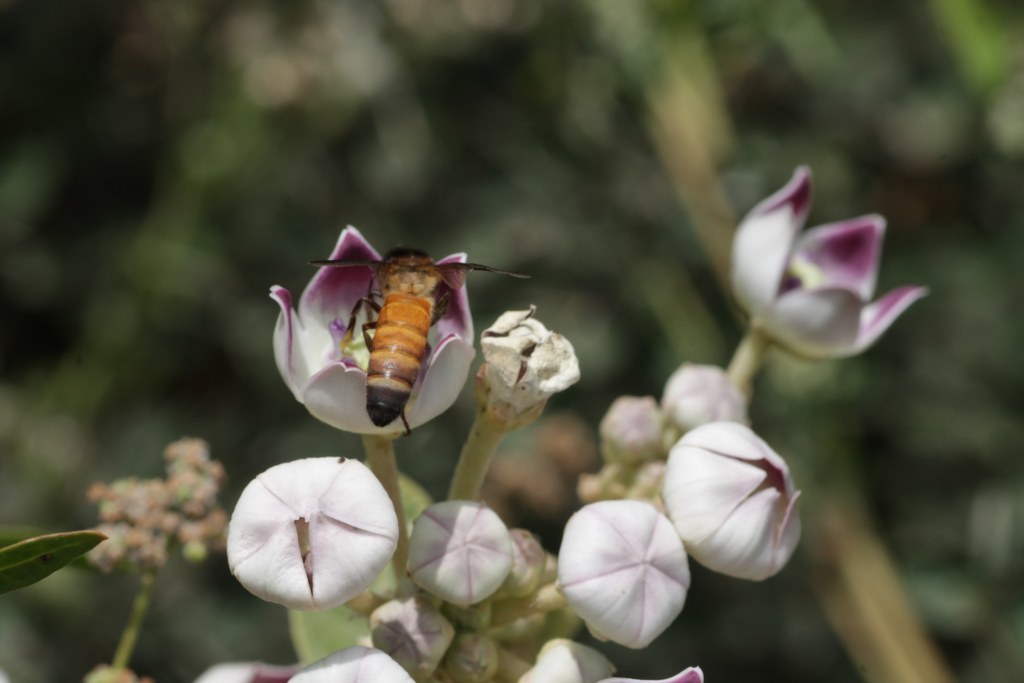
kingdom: Animalia
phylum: Arthropoda
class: Insecta
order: Hymenoptera
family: Apidae
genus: Apis
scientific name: Apis dorsata
